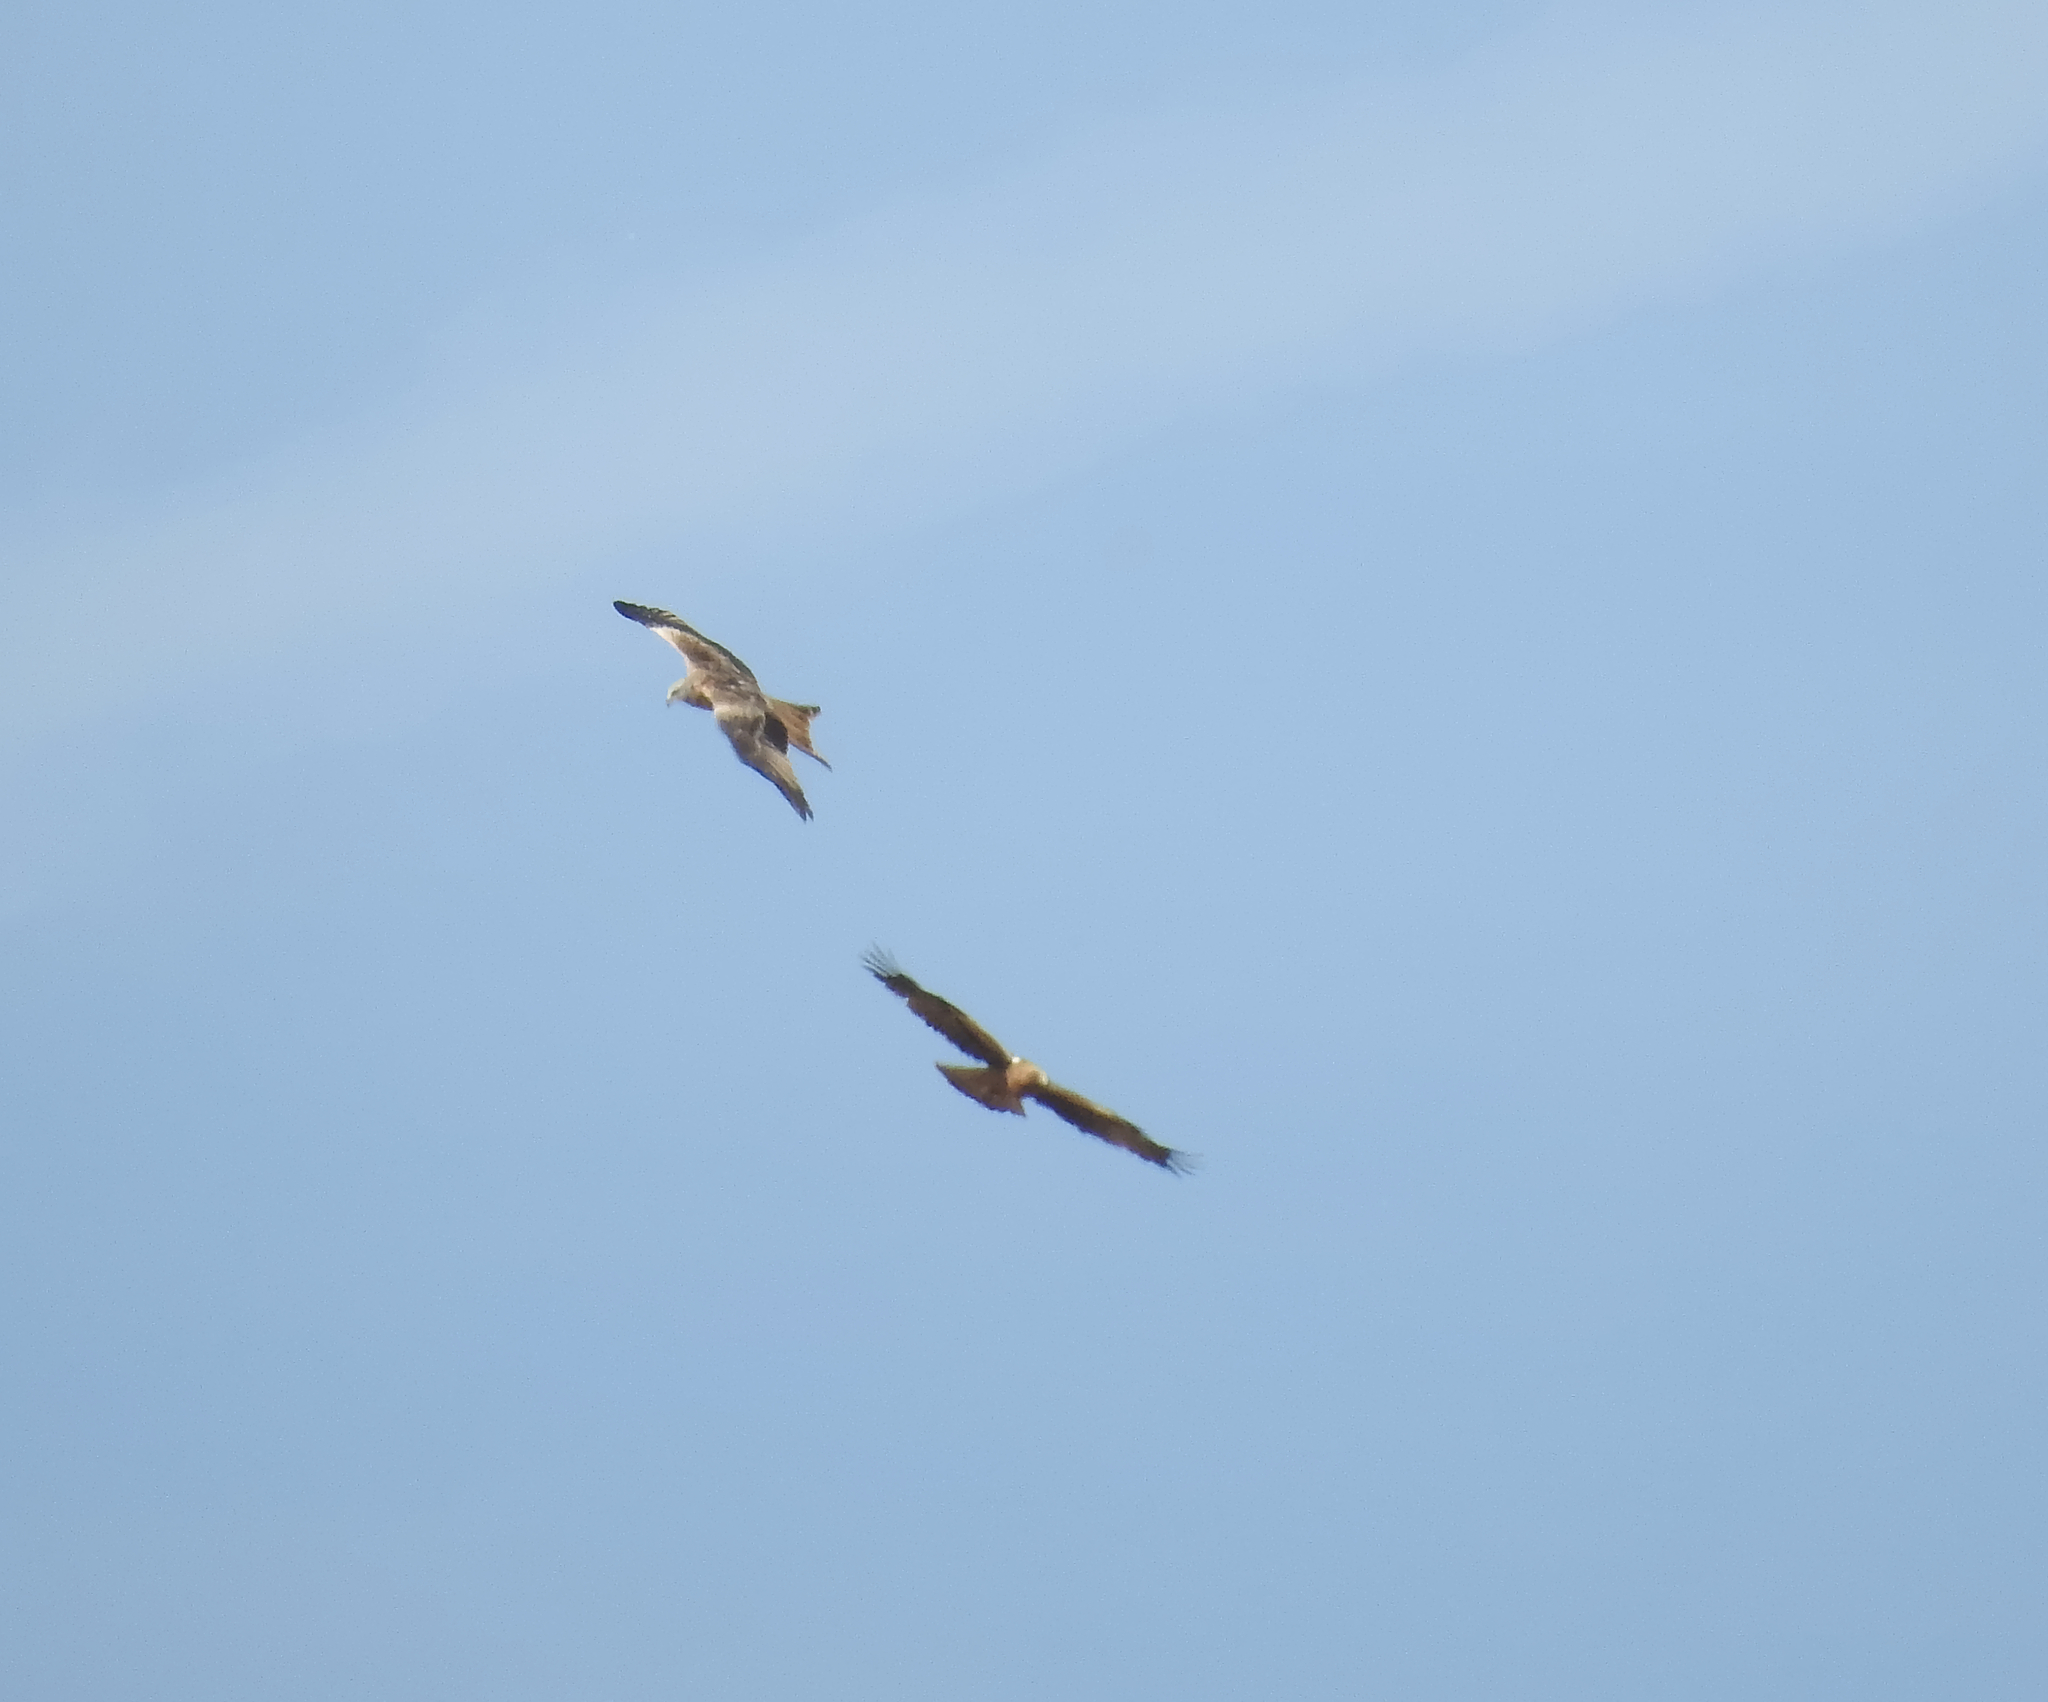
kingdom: Animalia
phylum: Chordata
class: Aves
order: Accipitriformes
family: Accipitridae
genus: Hieraaetus
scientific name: Hieraaetus pennatus
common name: Booted eagle
